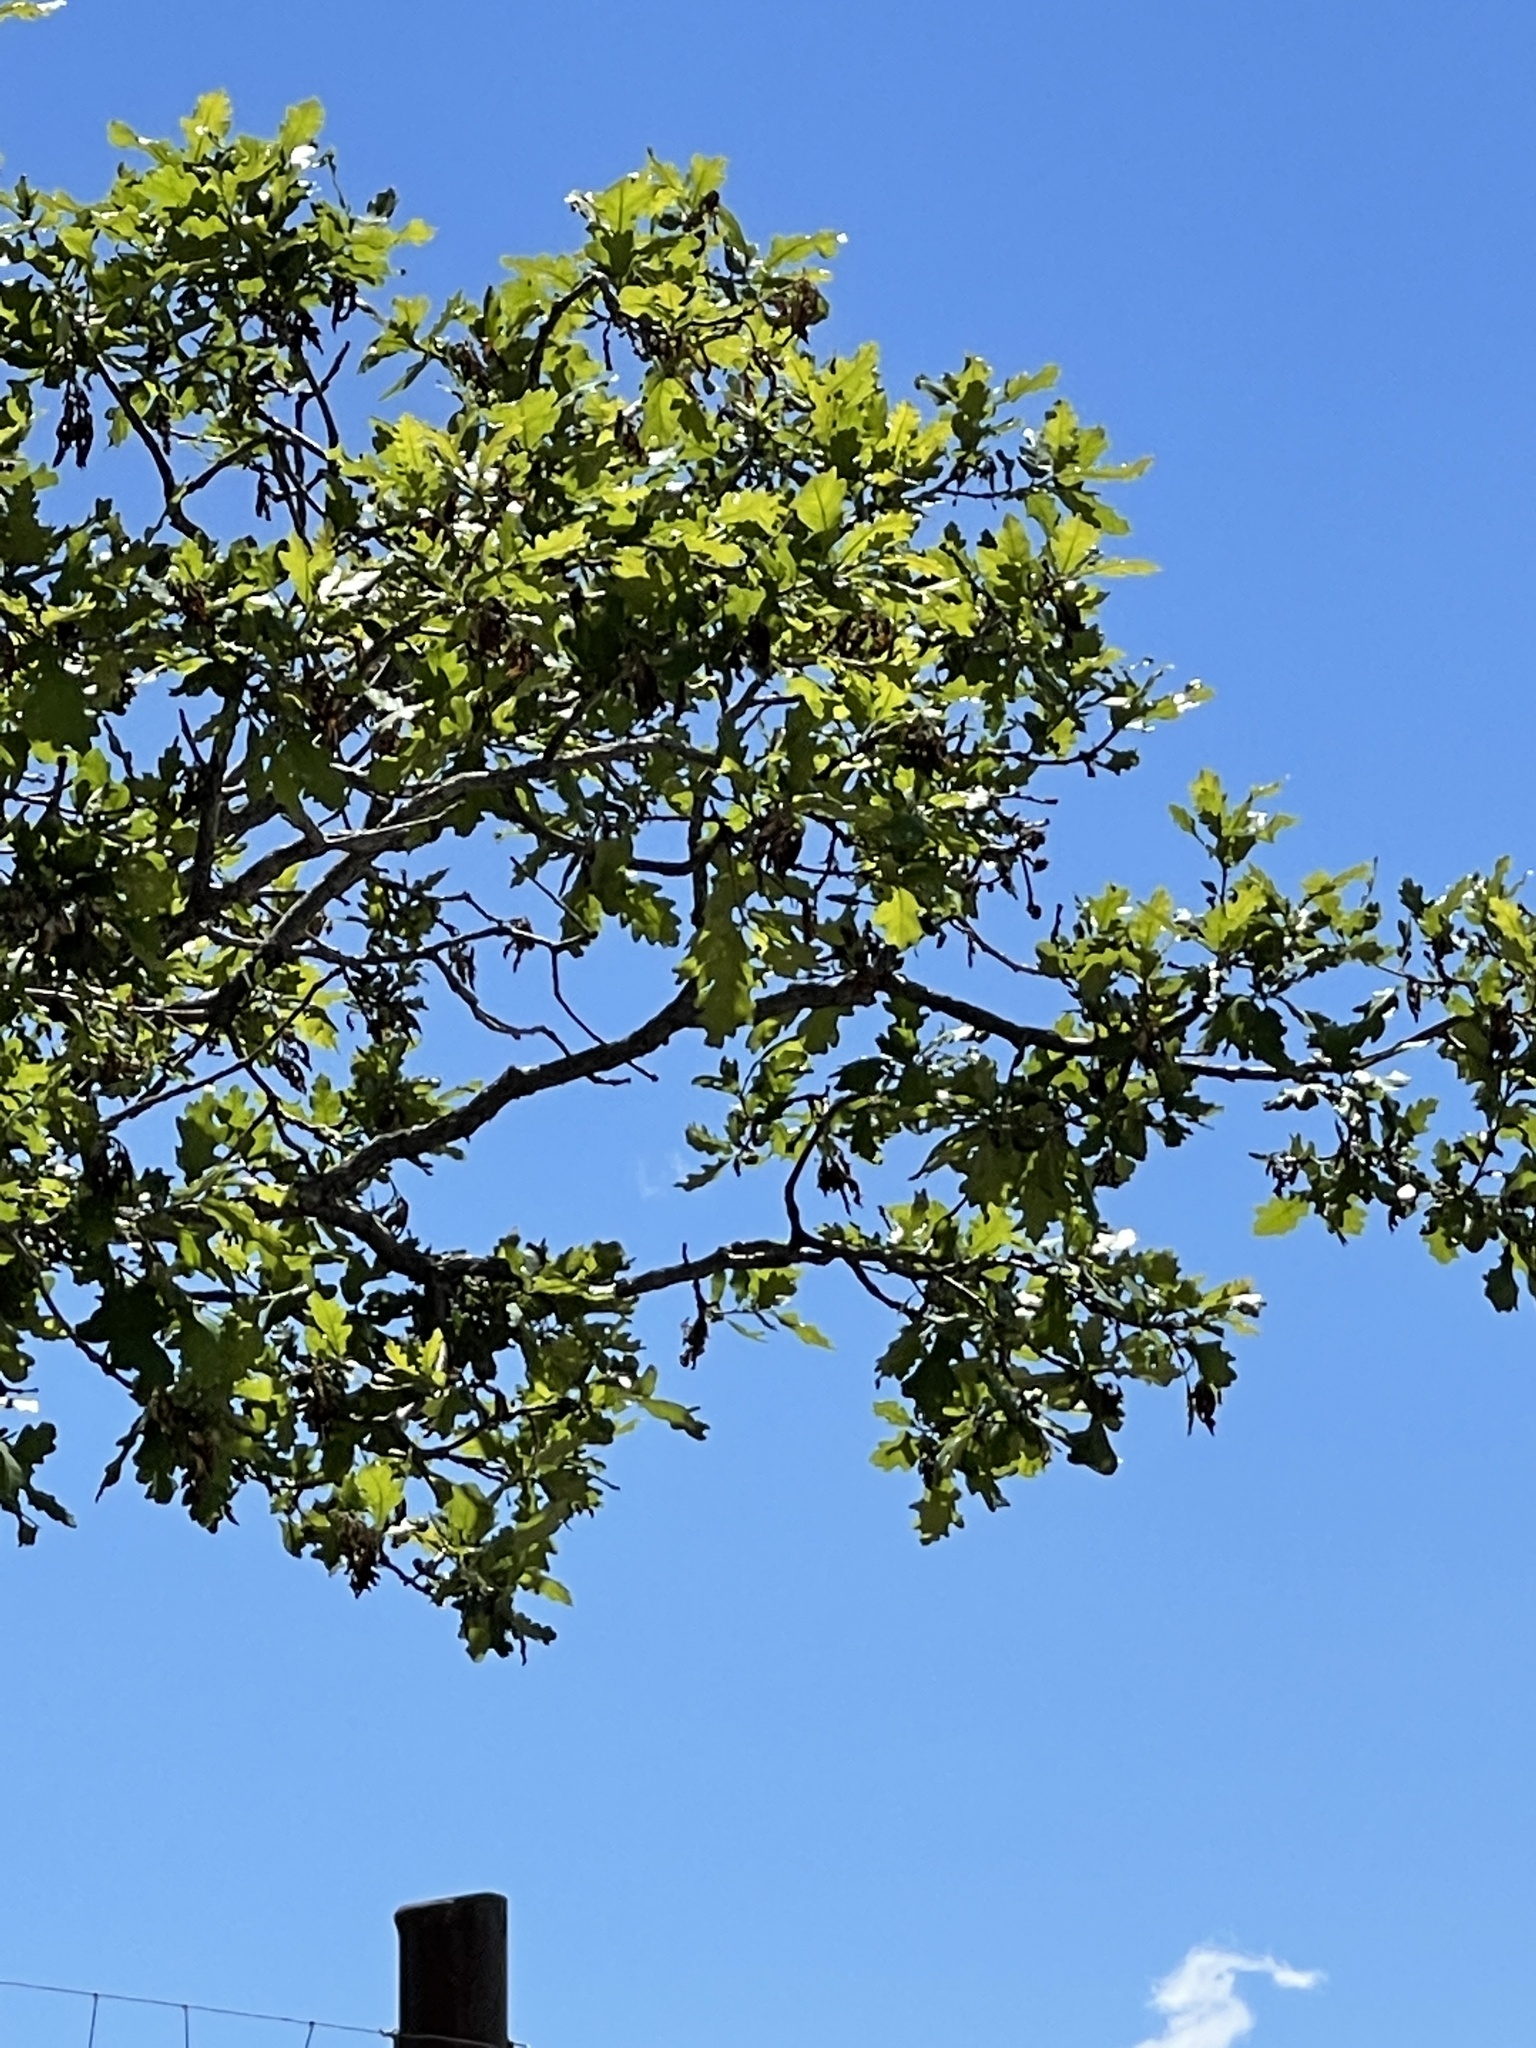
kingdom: Plantae
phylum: Tracheophyta
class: Magnoliopsida
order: Fagales
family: Fagaceae
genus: Quercus
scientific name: Quercus gambelii
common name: Gambel oak
